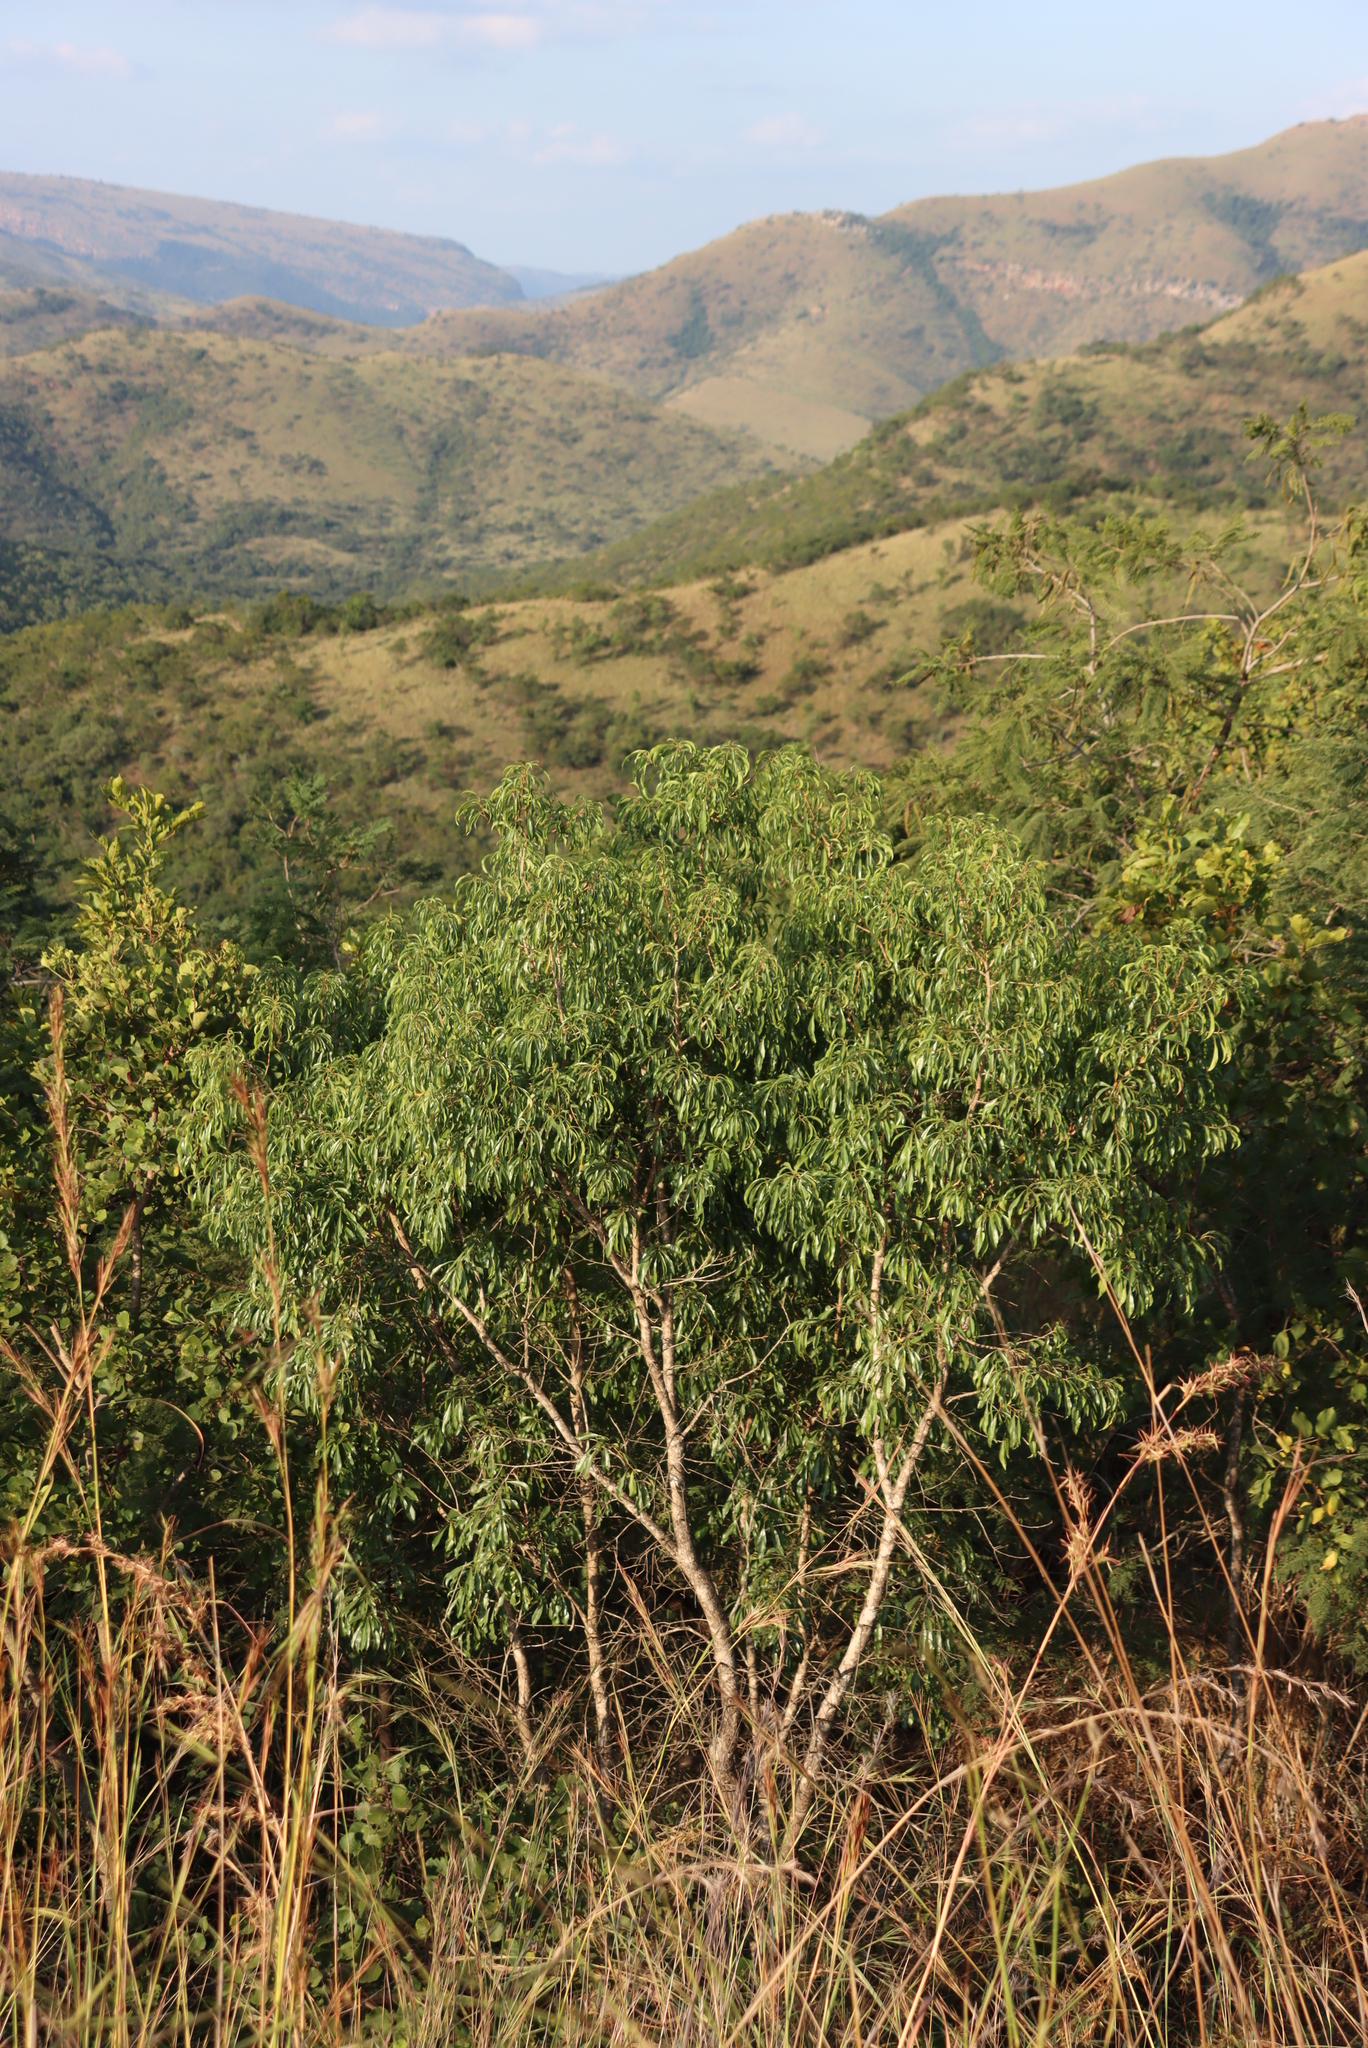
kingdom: Plantae
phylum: Tracheophyta
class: Magnoliopsida
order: Myrtales
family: Myrtaceae
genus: Heteropyxis
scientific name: Heteropyxis natalensis
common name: Lavender tree
